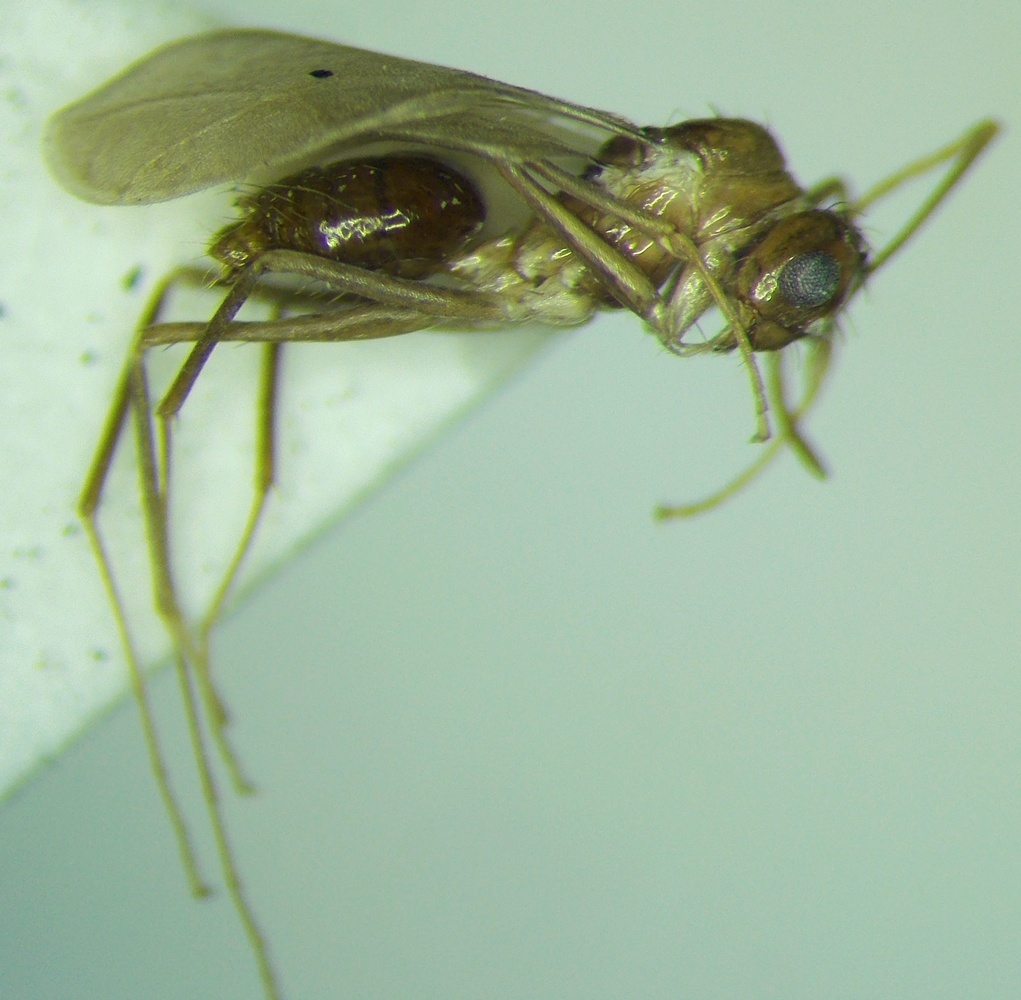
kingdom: Animalia
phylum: Arthropoda
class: Insecta
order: Hymenoptera
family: Formicidae
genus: Paratrechina
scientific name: Paratrechina longicornis
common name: Longhorned crazy ant
